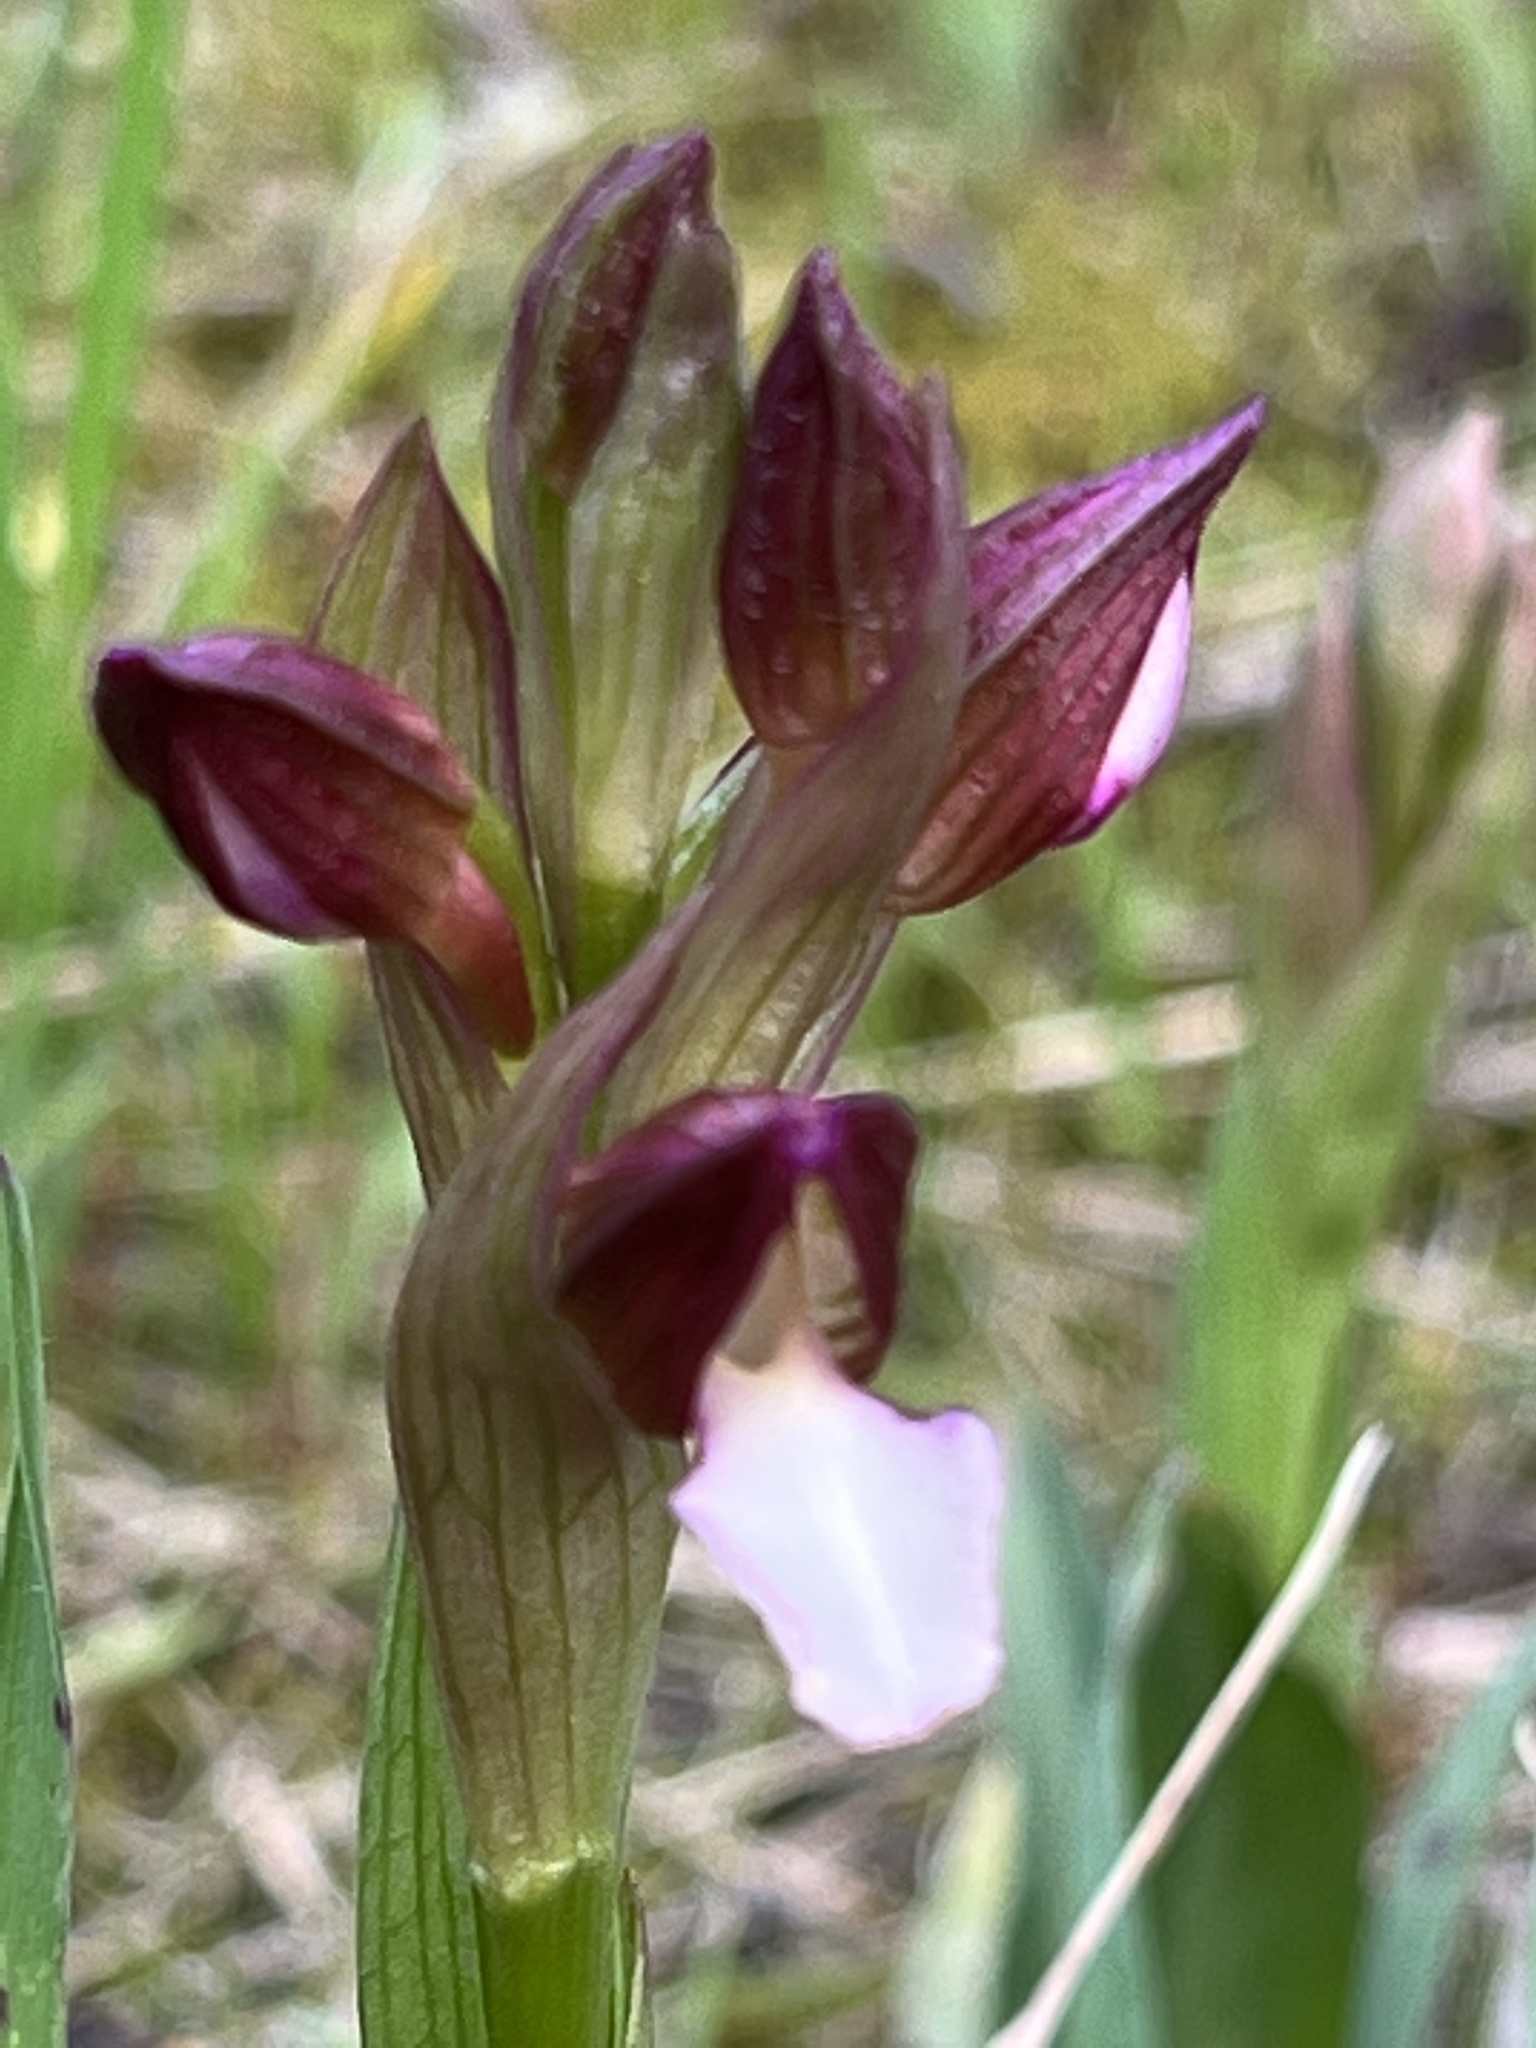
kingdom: Plantae
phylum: Tracheophyta
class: Liliopsida
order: Asparagales
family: Orchidaceae
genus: Anacamptis
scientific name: Anacamptis papilionacea
